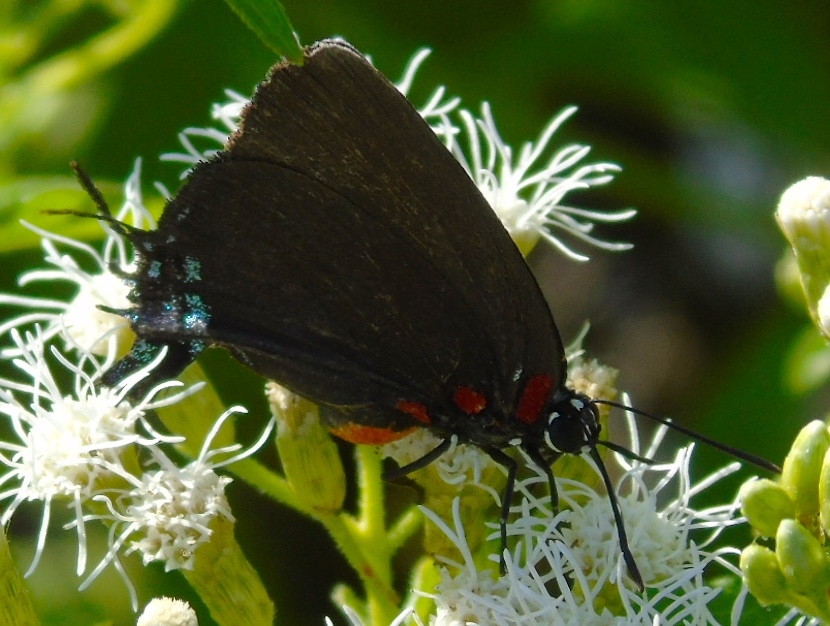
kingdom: Animalia
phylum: Arthropoda
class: Insecta
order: Lepidoptera
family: Lycaenidae
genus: Atlides
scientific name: Atlides
